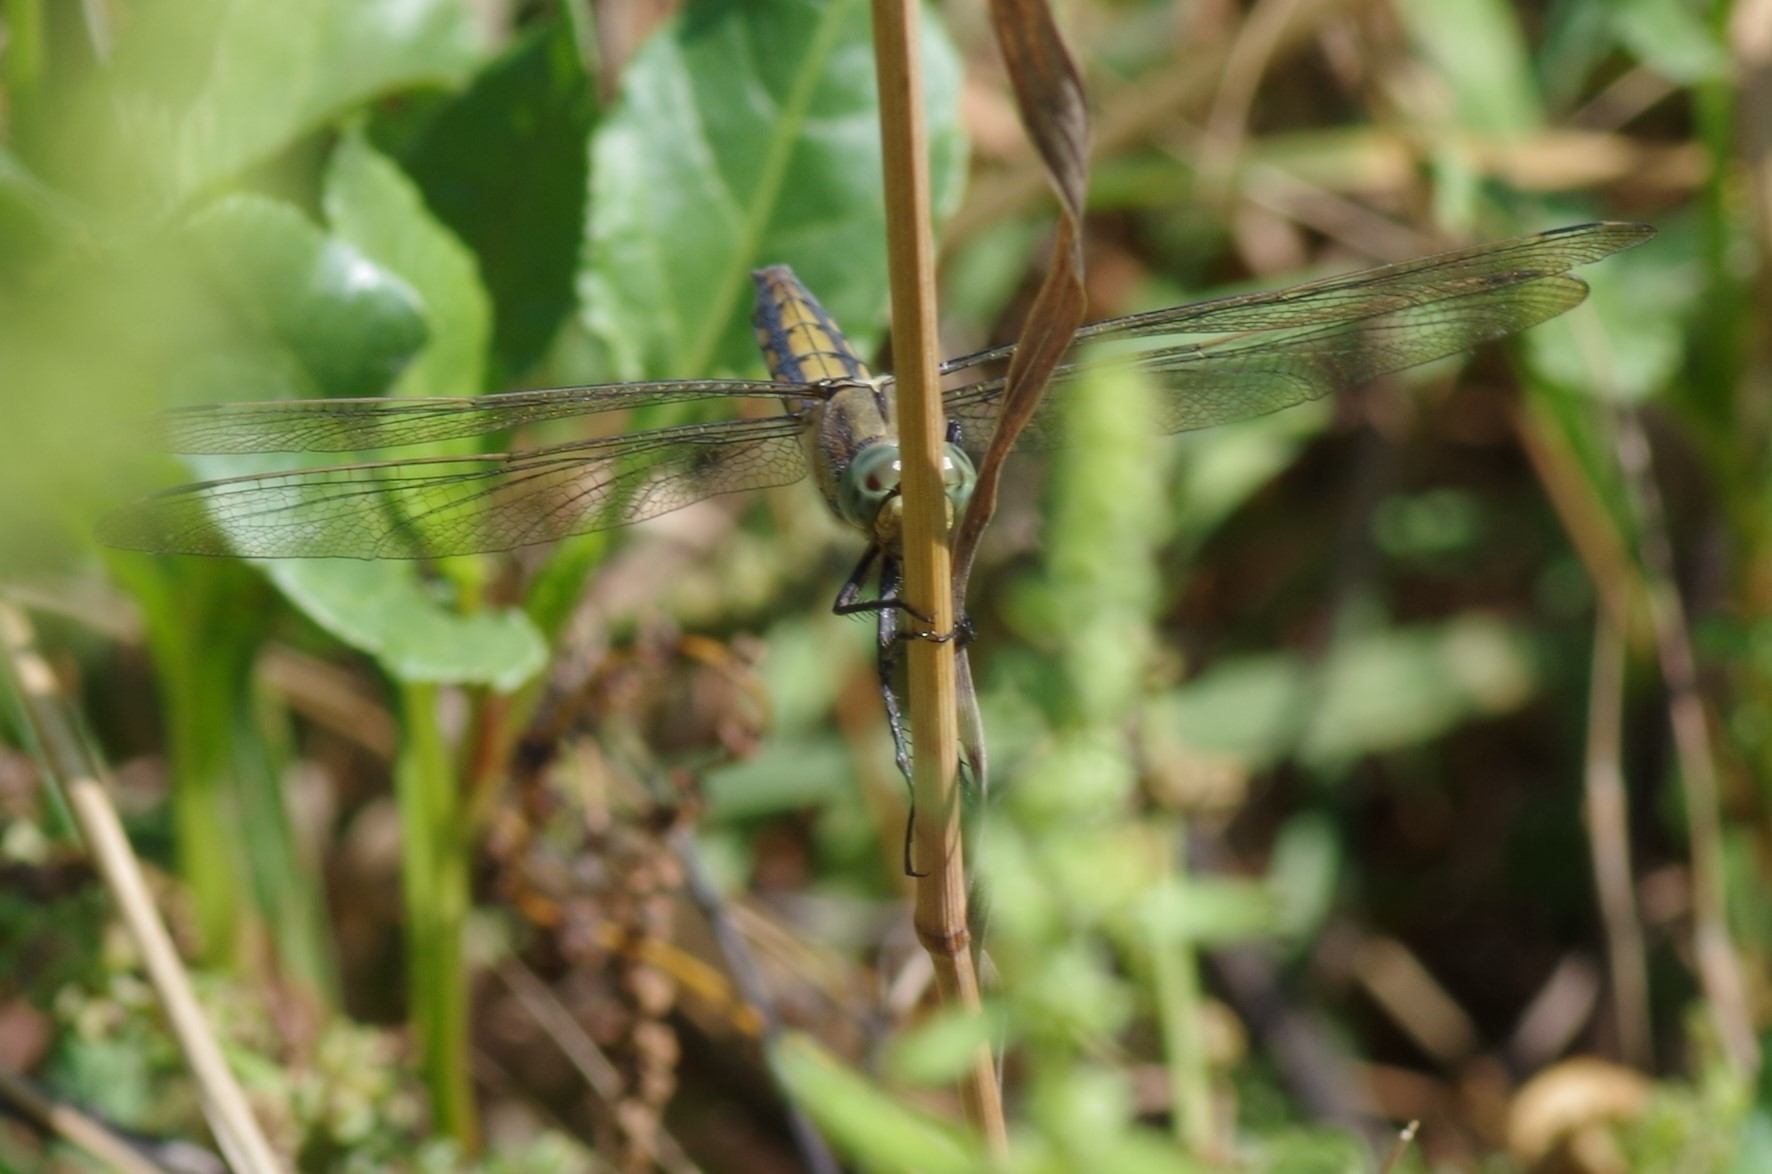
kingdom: Animalia
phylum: Arthropoda
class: Insecta
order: Odonata
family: Libellulidae
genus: Orthetrum
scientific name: Orthetrum cancellatum
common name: Black-tailed skimmer
